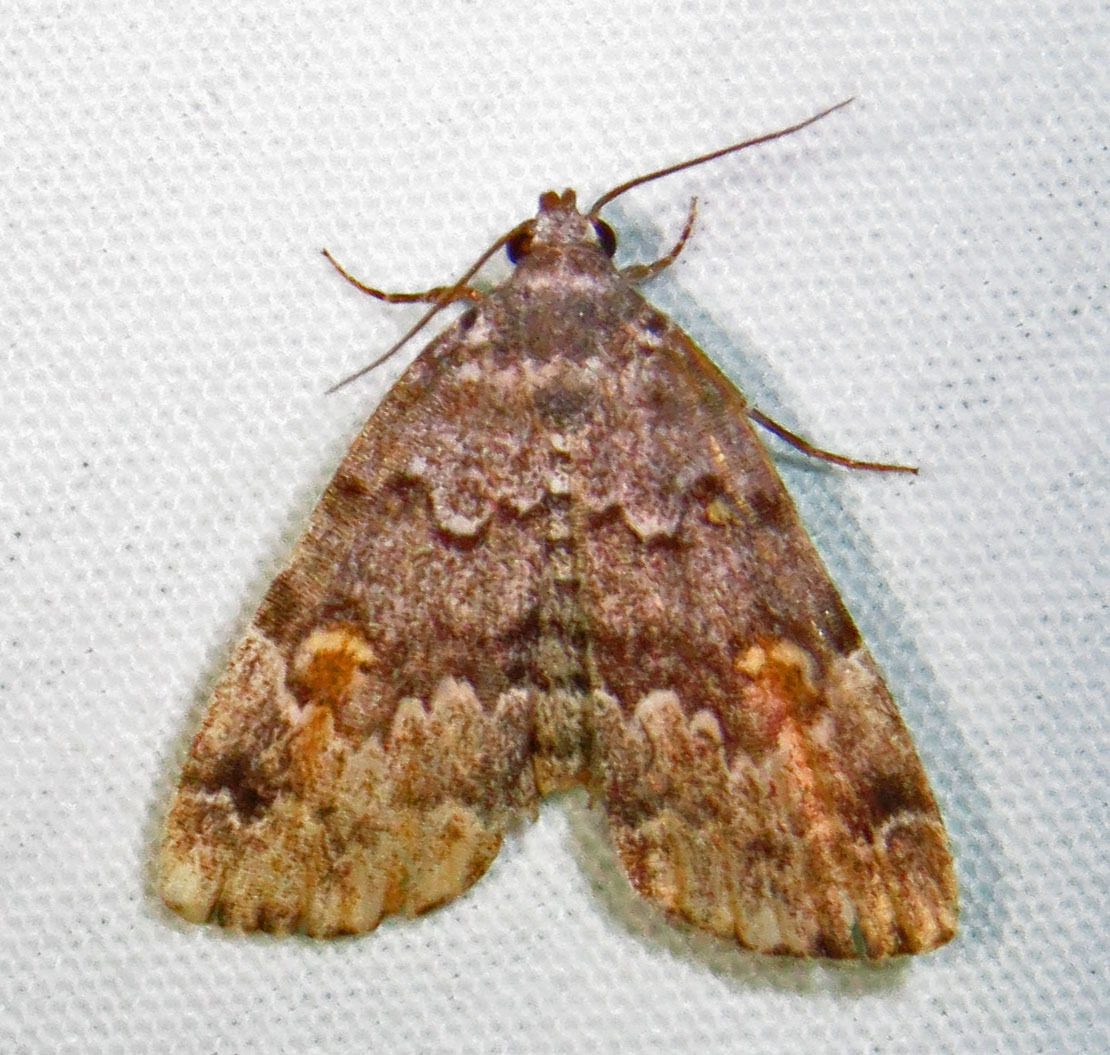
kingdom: Animalia
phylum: Arthropoda
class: Insecta
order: Lepidoptera
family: Erebidae
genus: Idia
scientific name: Idia americalis
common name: American idia moth
